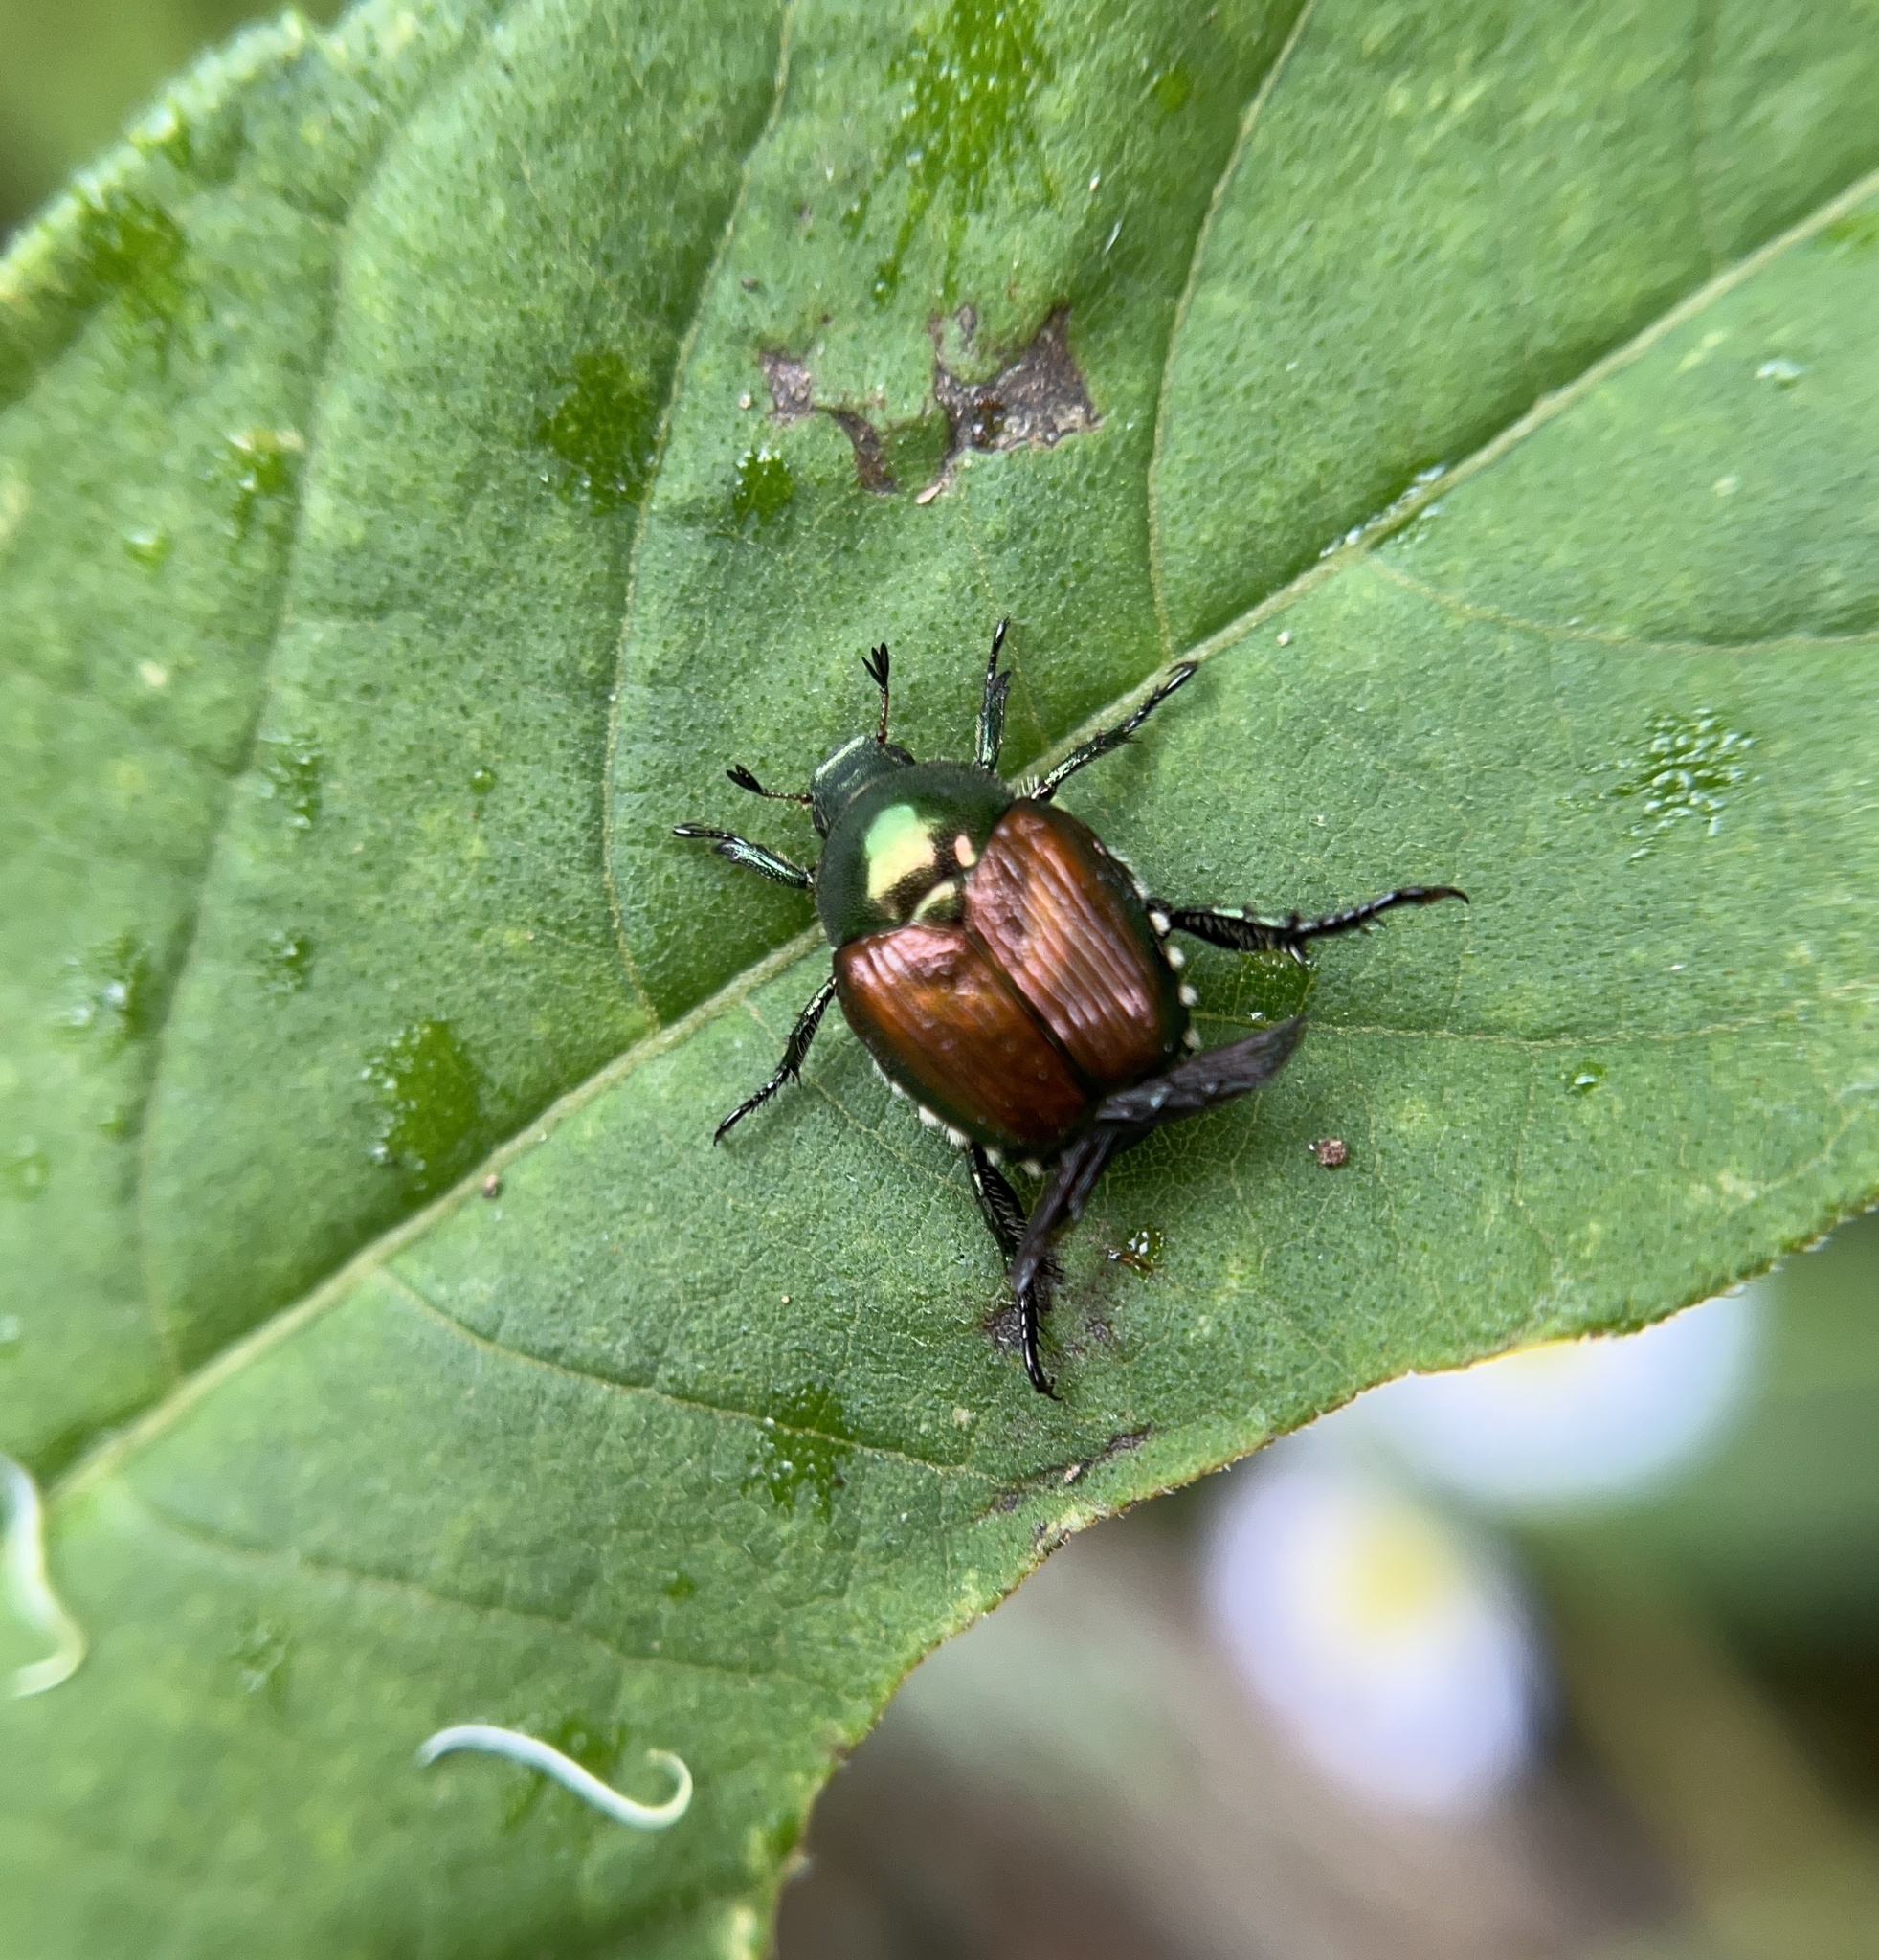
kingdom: Animalia
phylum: Arthropoda
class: Insecta
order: Coleoptera
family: Scarabaeidae
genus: Popillia
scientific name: Popillia japonica
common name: Japanese beetle
